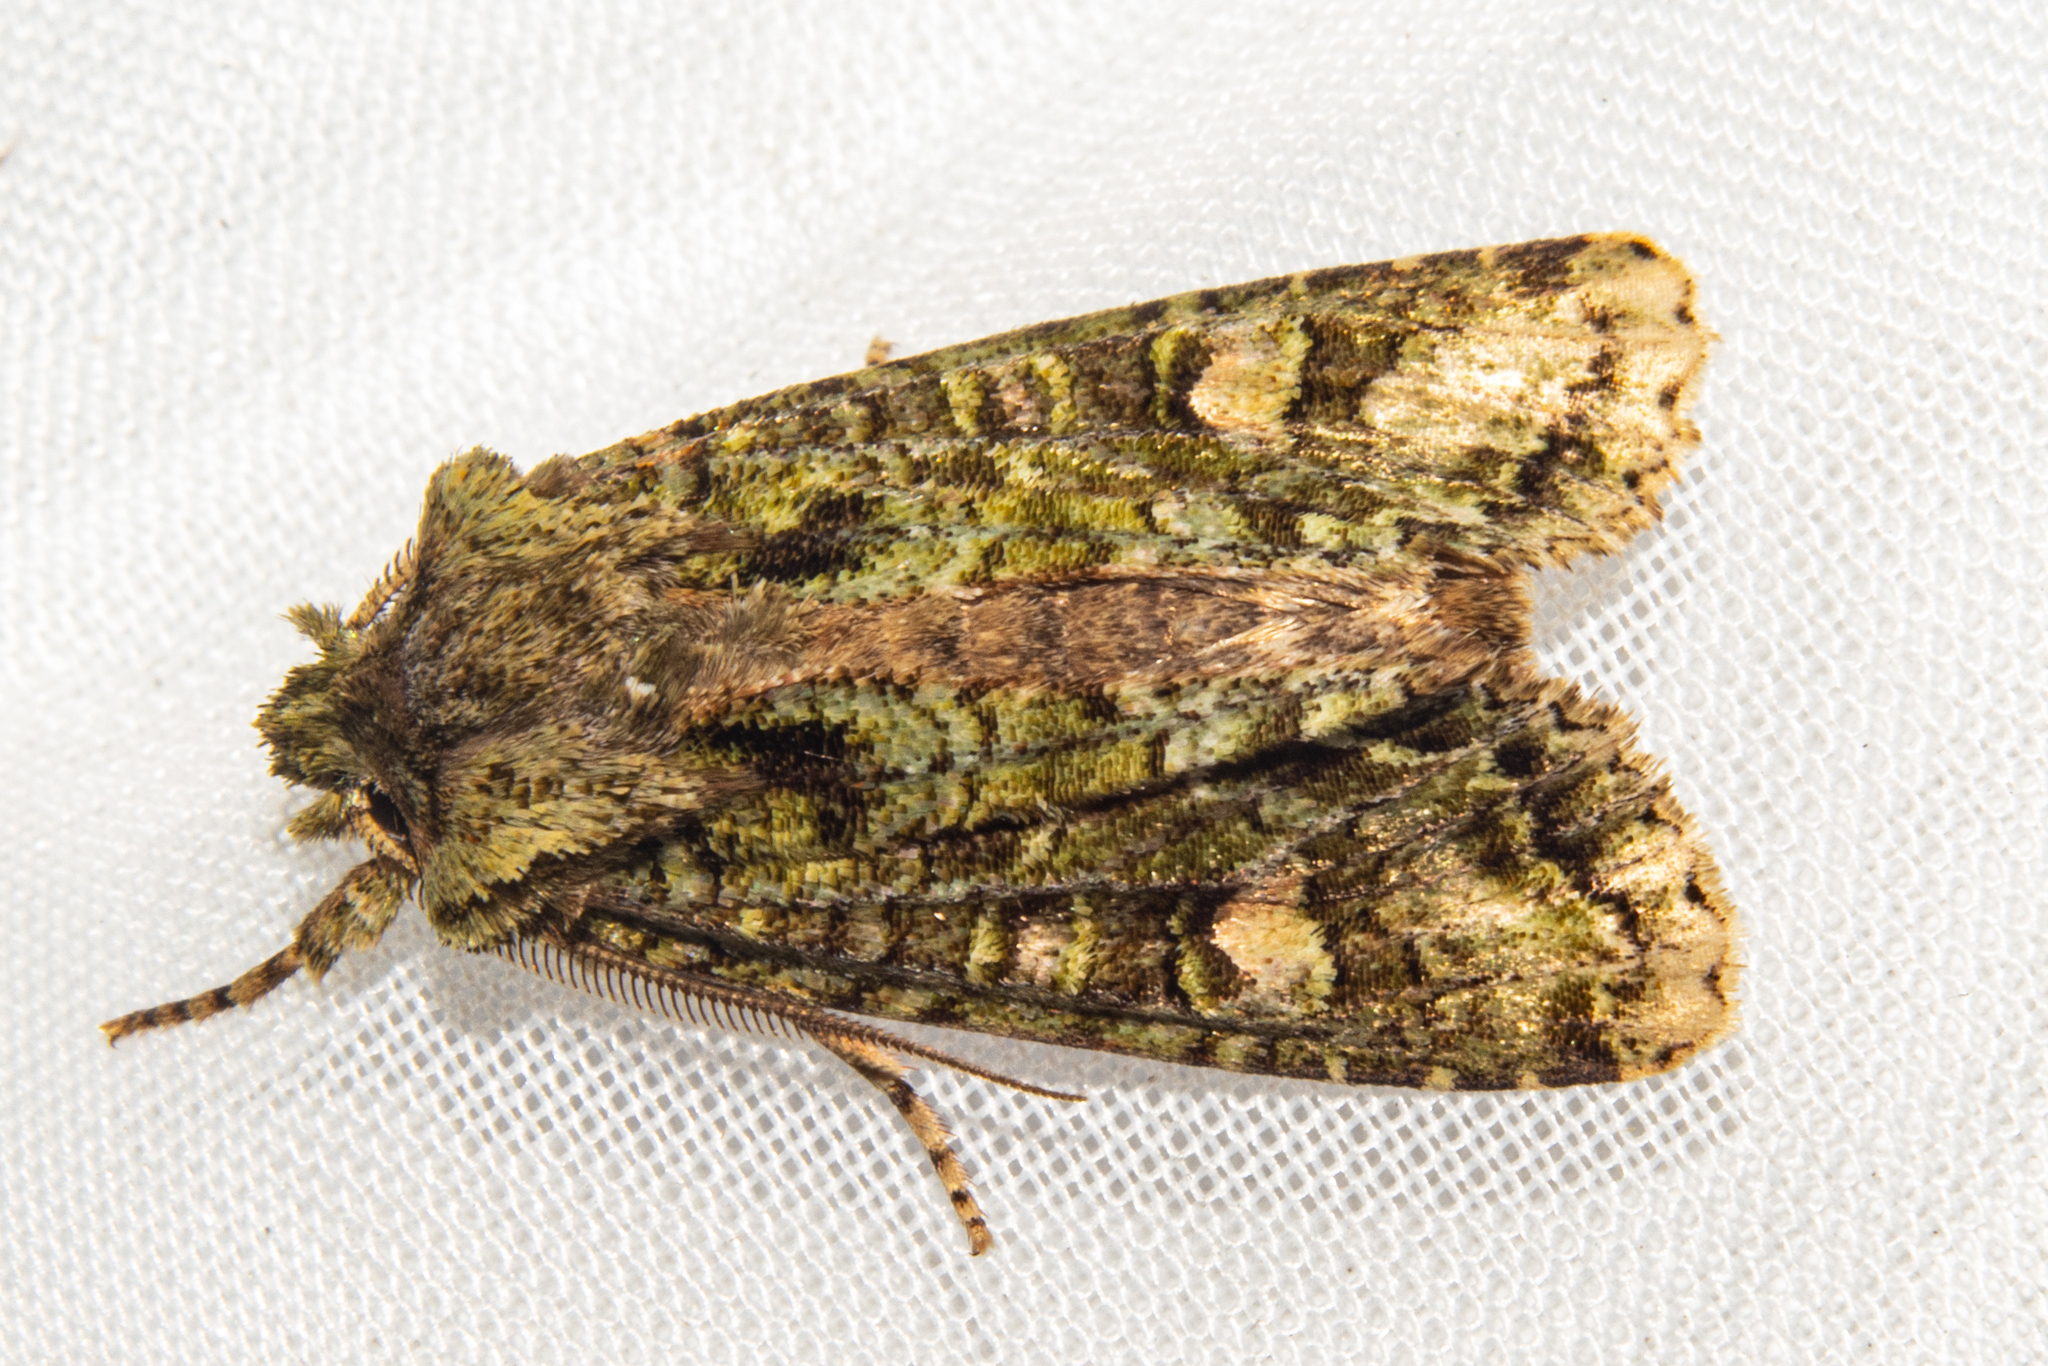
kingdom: Animalia
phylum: Arthropoda
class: Insecta
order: Lepidoptera
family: Noctuidae
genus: Ichneutica
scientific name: Ichneutica
